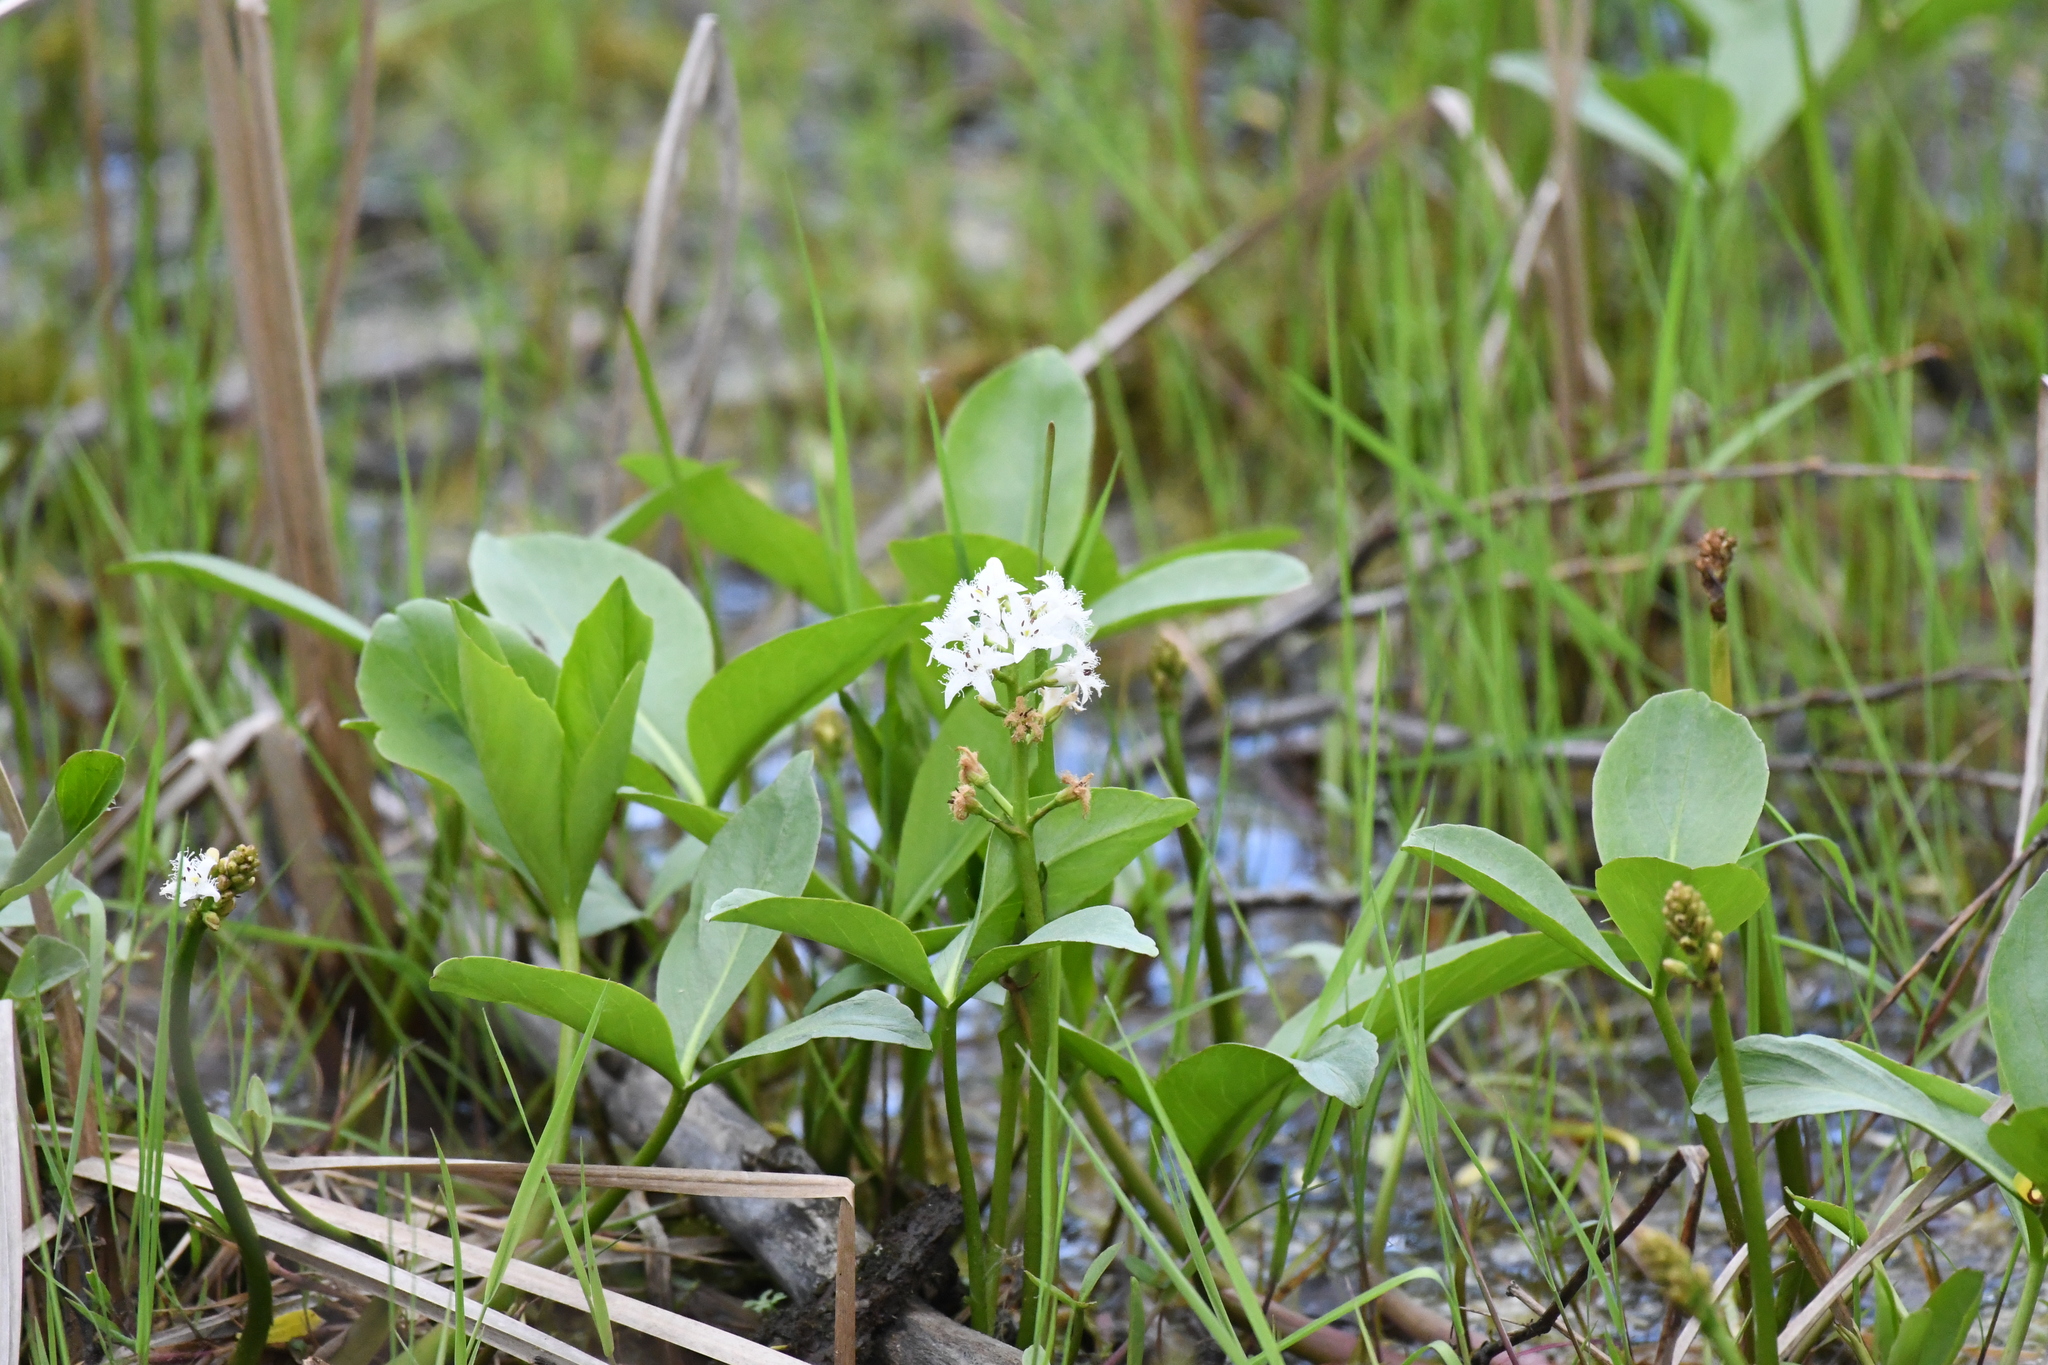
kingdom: Plantae
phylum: Tracheophyta
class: Magnoliopsida
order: Asterales
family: Menyanthaceae
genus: Menyanthes
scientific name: Menyanthes trifoliata
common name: Bogbean
